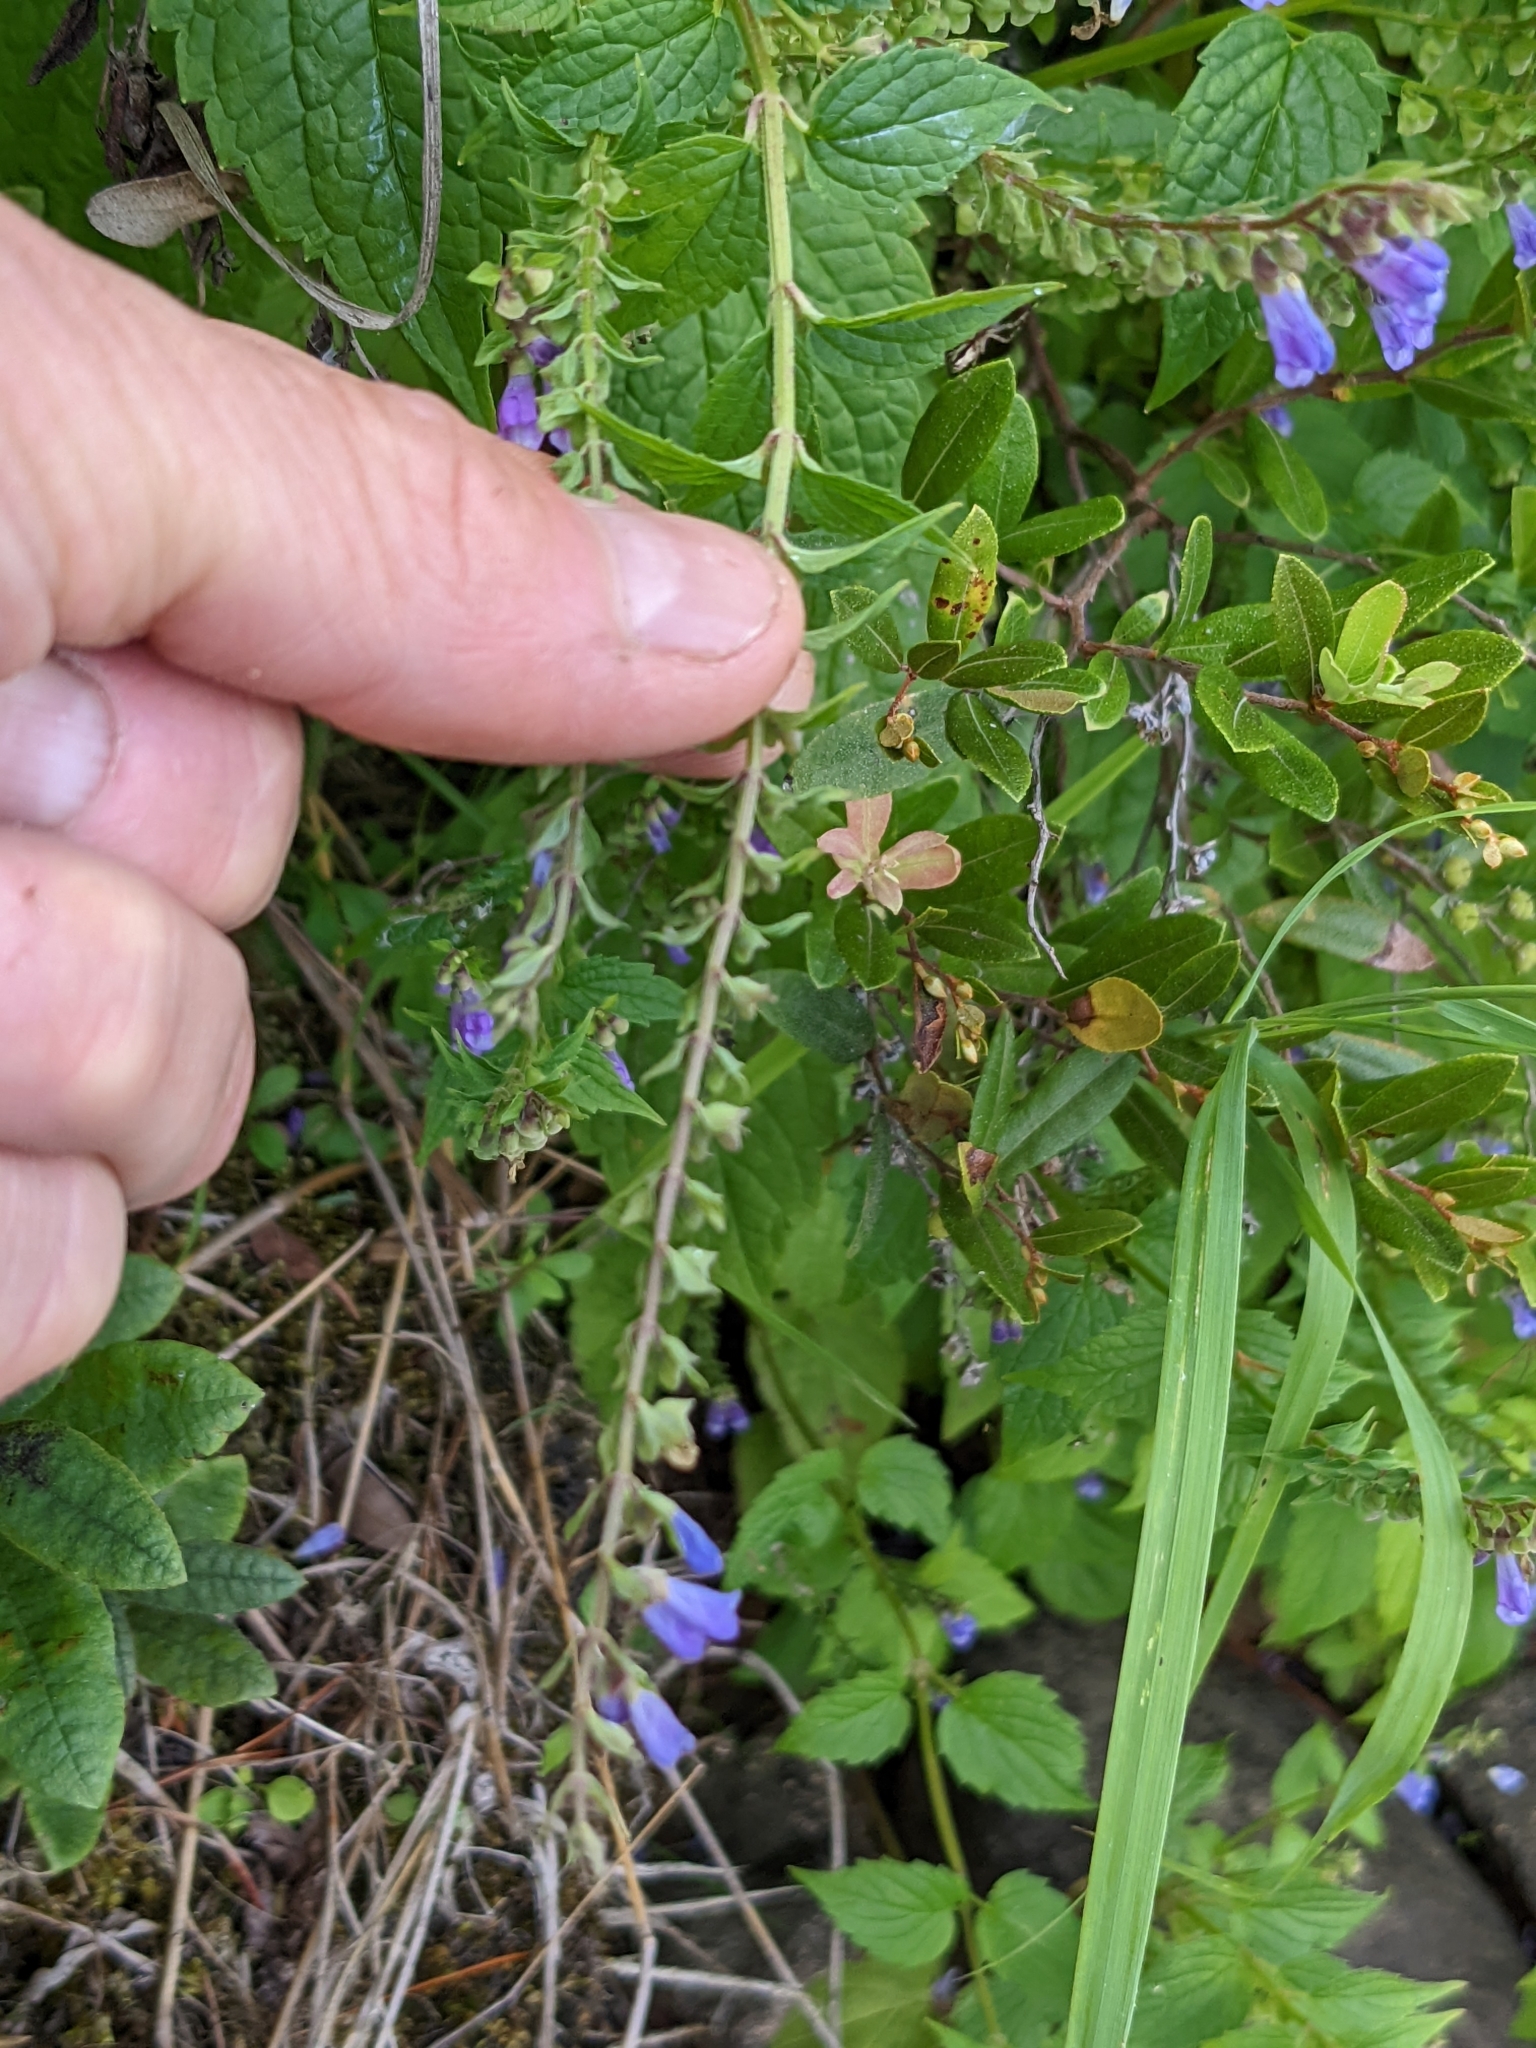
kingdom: Plantae
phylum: Tracheophyta
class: Magnoliopsida
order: Lamiales
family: Lamiaceae
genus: Scutellaria
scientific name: Scutellaria lateriflora
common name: Blue skullcap
